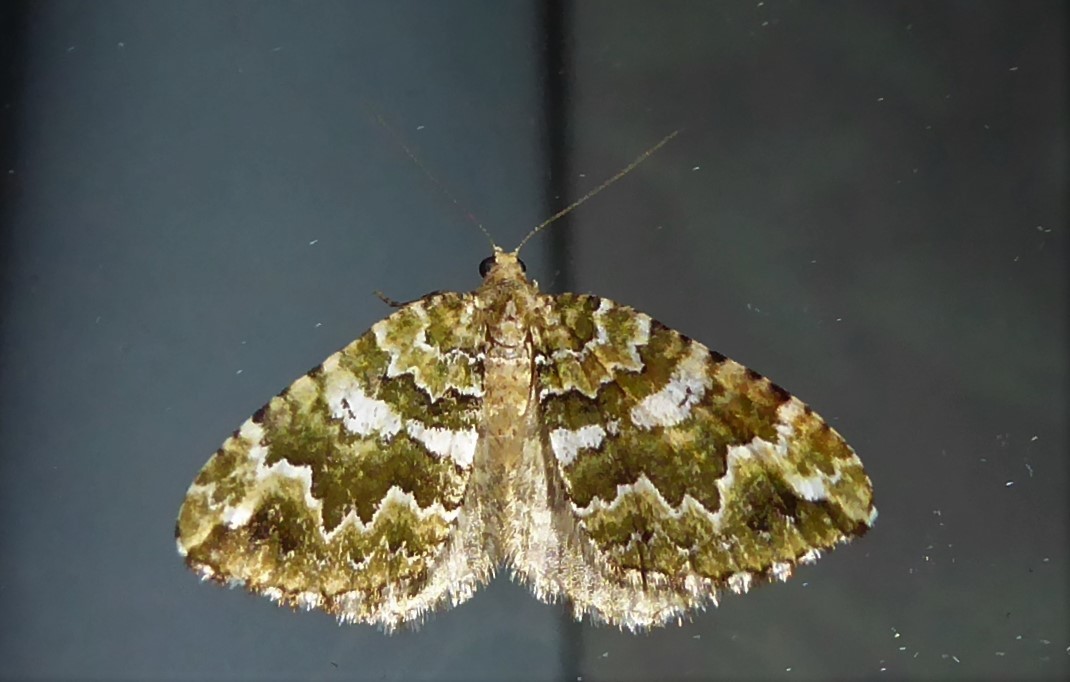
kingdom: Animalia
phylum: Arthropoda
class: Insecta
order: Lepidoptera
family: Geometridae
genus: Asaphodes
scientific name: Asaphodes beata
